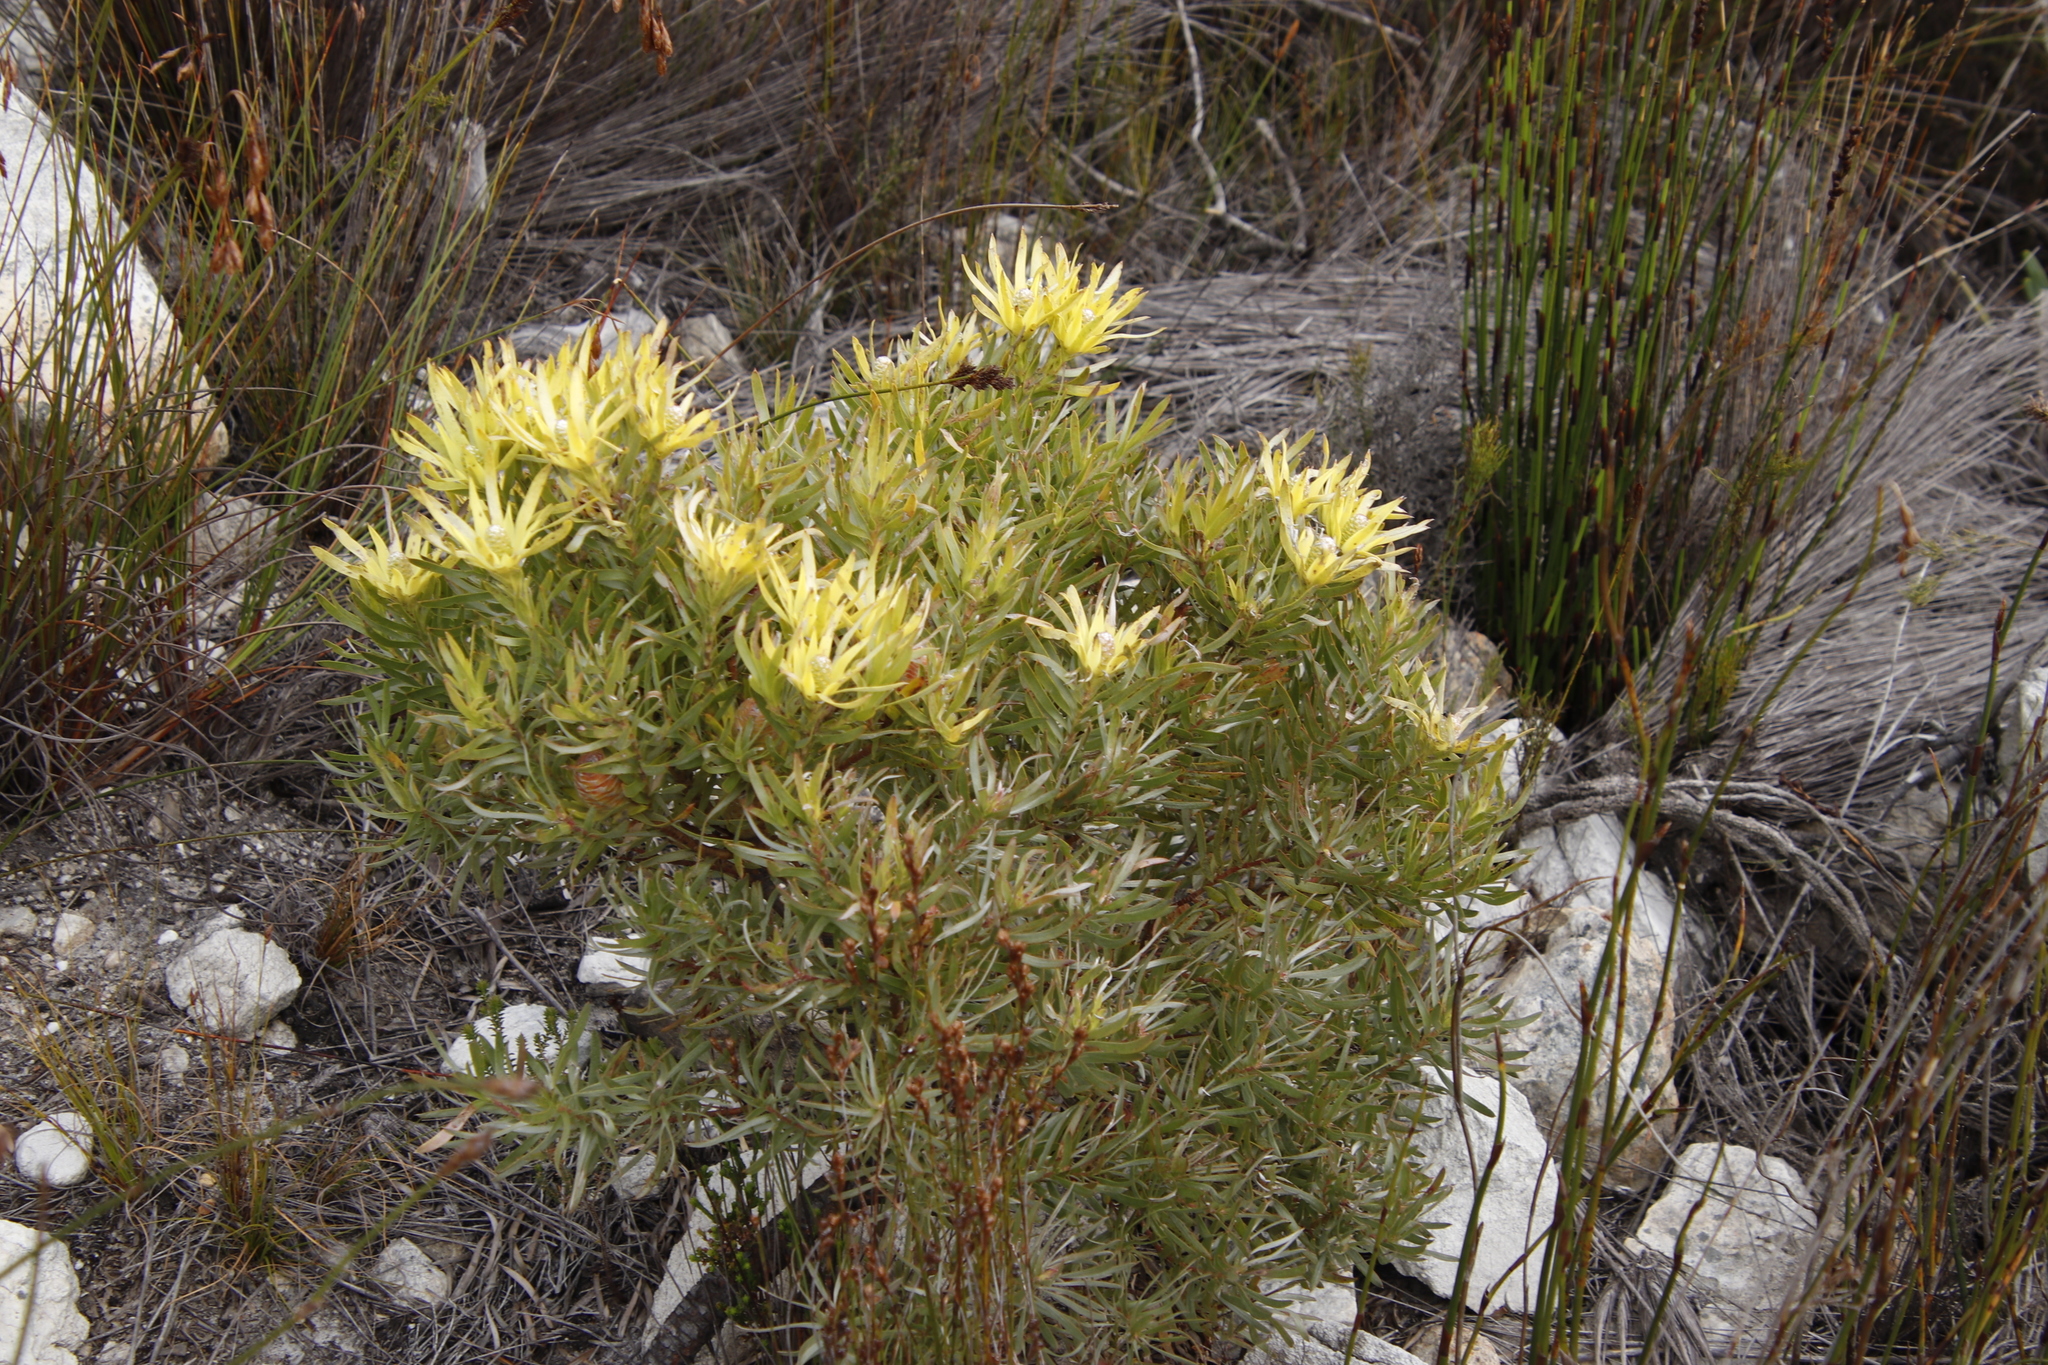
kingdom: Plantae
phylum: Tracheophyta
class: Magnoliopsida
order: Proteales
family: Proteaceae
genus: Leucadendron
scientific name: Leucadendron xanthoconus
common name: Sickle-leaf conebush
